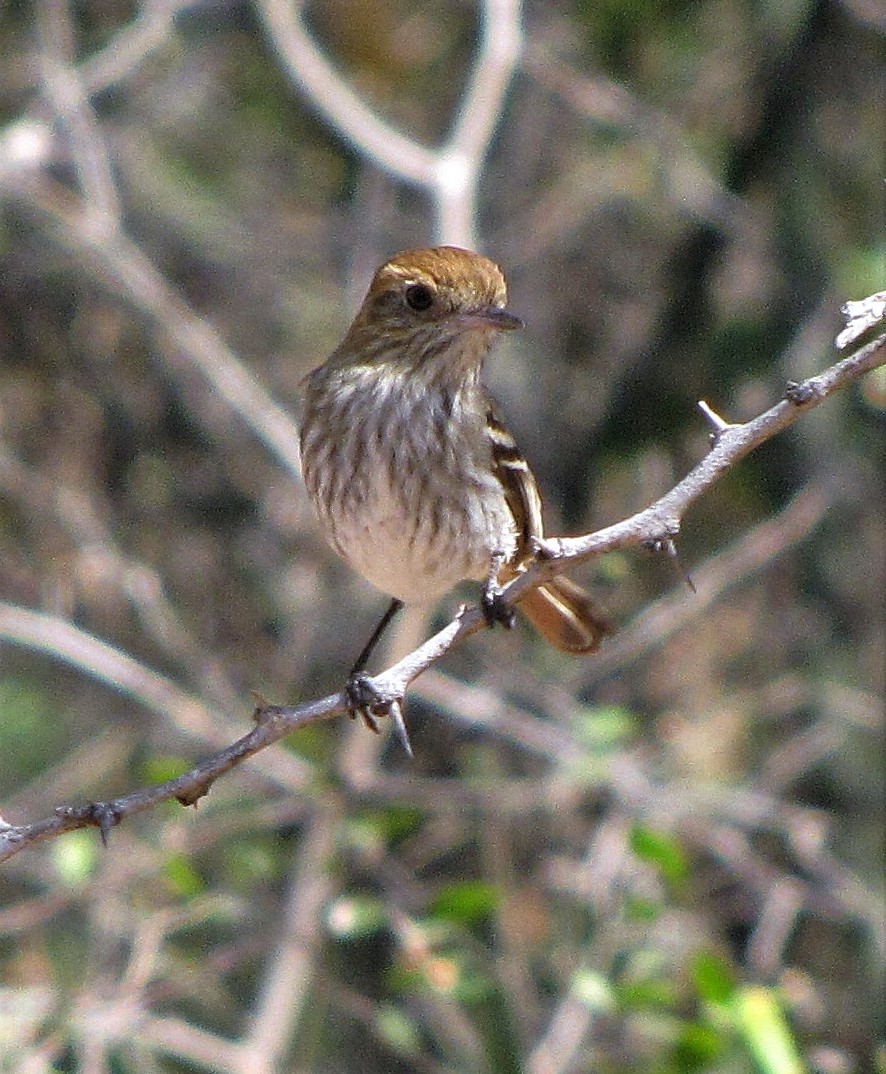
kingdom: Animalia
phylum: Chordata
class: Aves
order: Passeriformes
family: Tyrannidae
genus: Knipolegus
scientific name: Knipolegus striaticeps
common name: Cinereous tyrant
